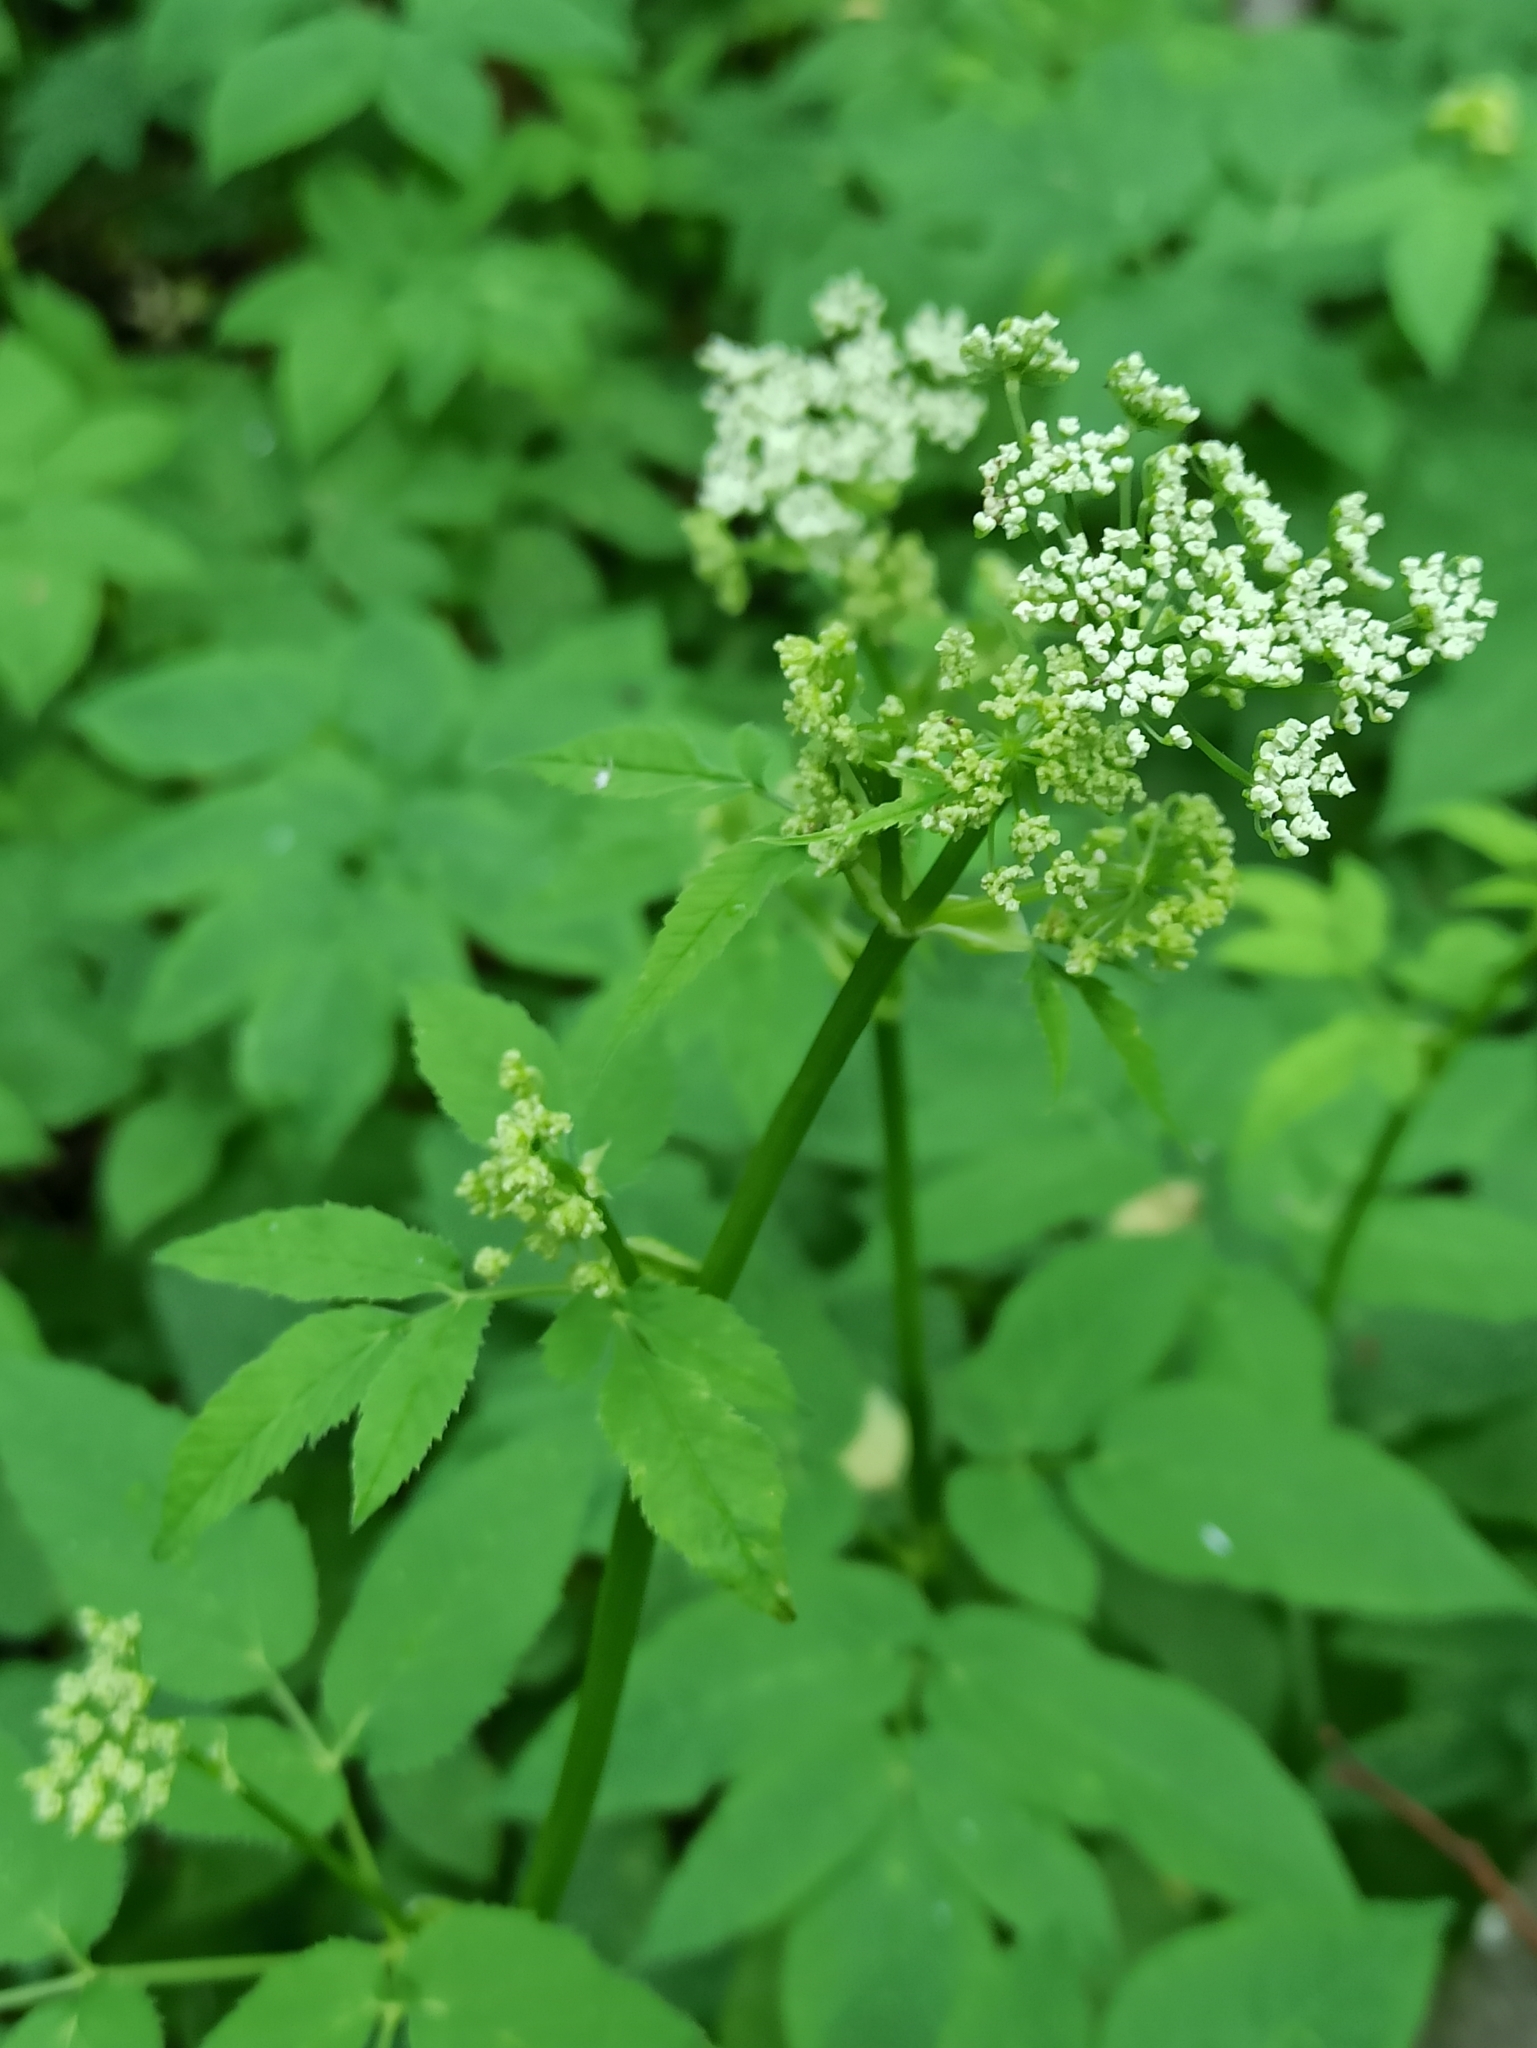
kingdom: Plantae
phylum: Tracheophyta
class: Magnoliopsida
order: Apiales
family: Apiaceae
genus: Aegopodium
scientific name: Aegopodium podagraria
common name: Ground-elder
